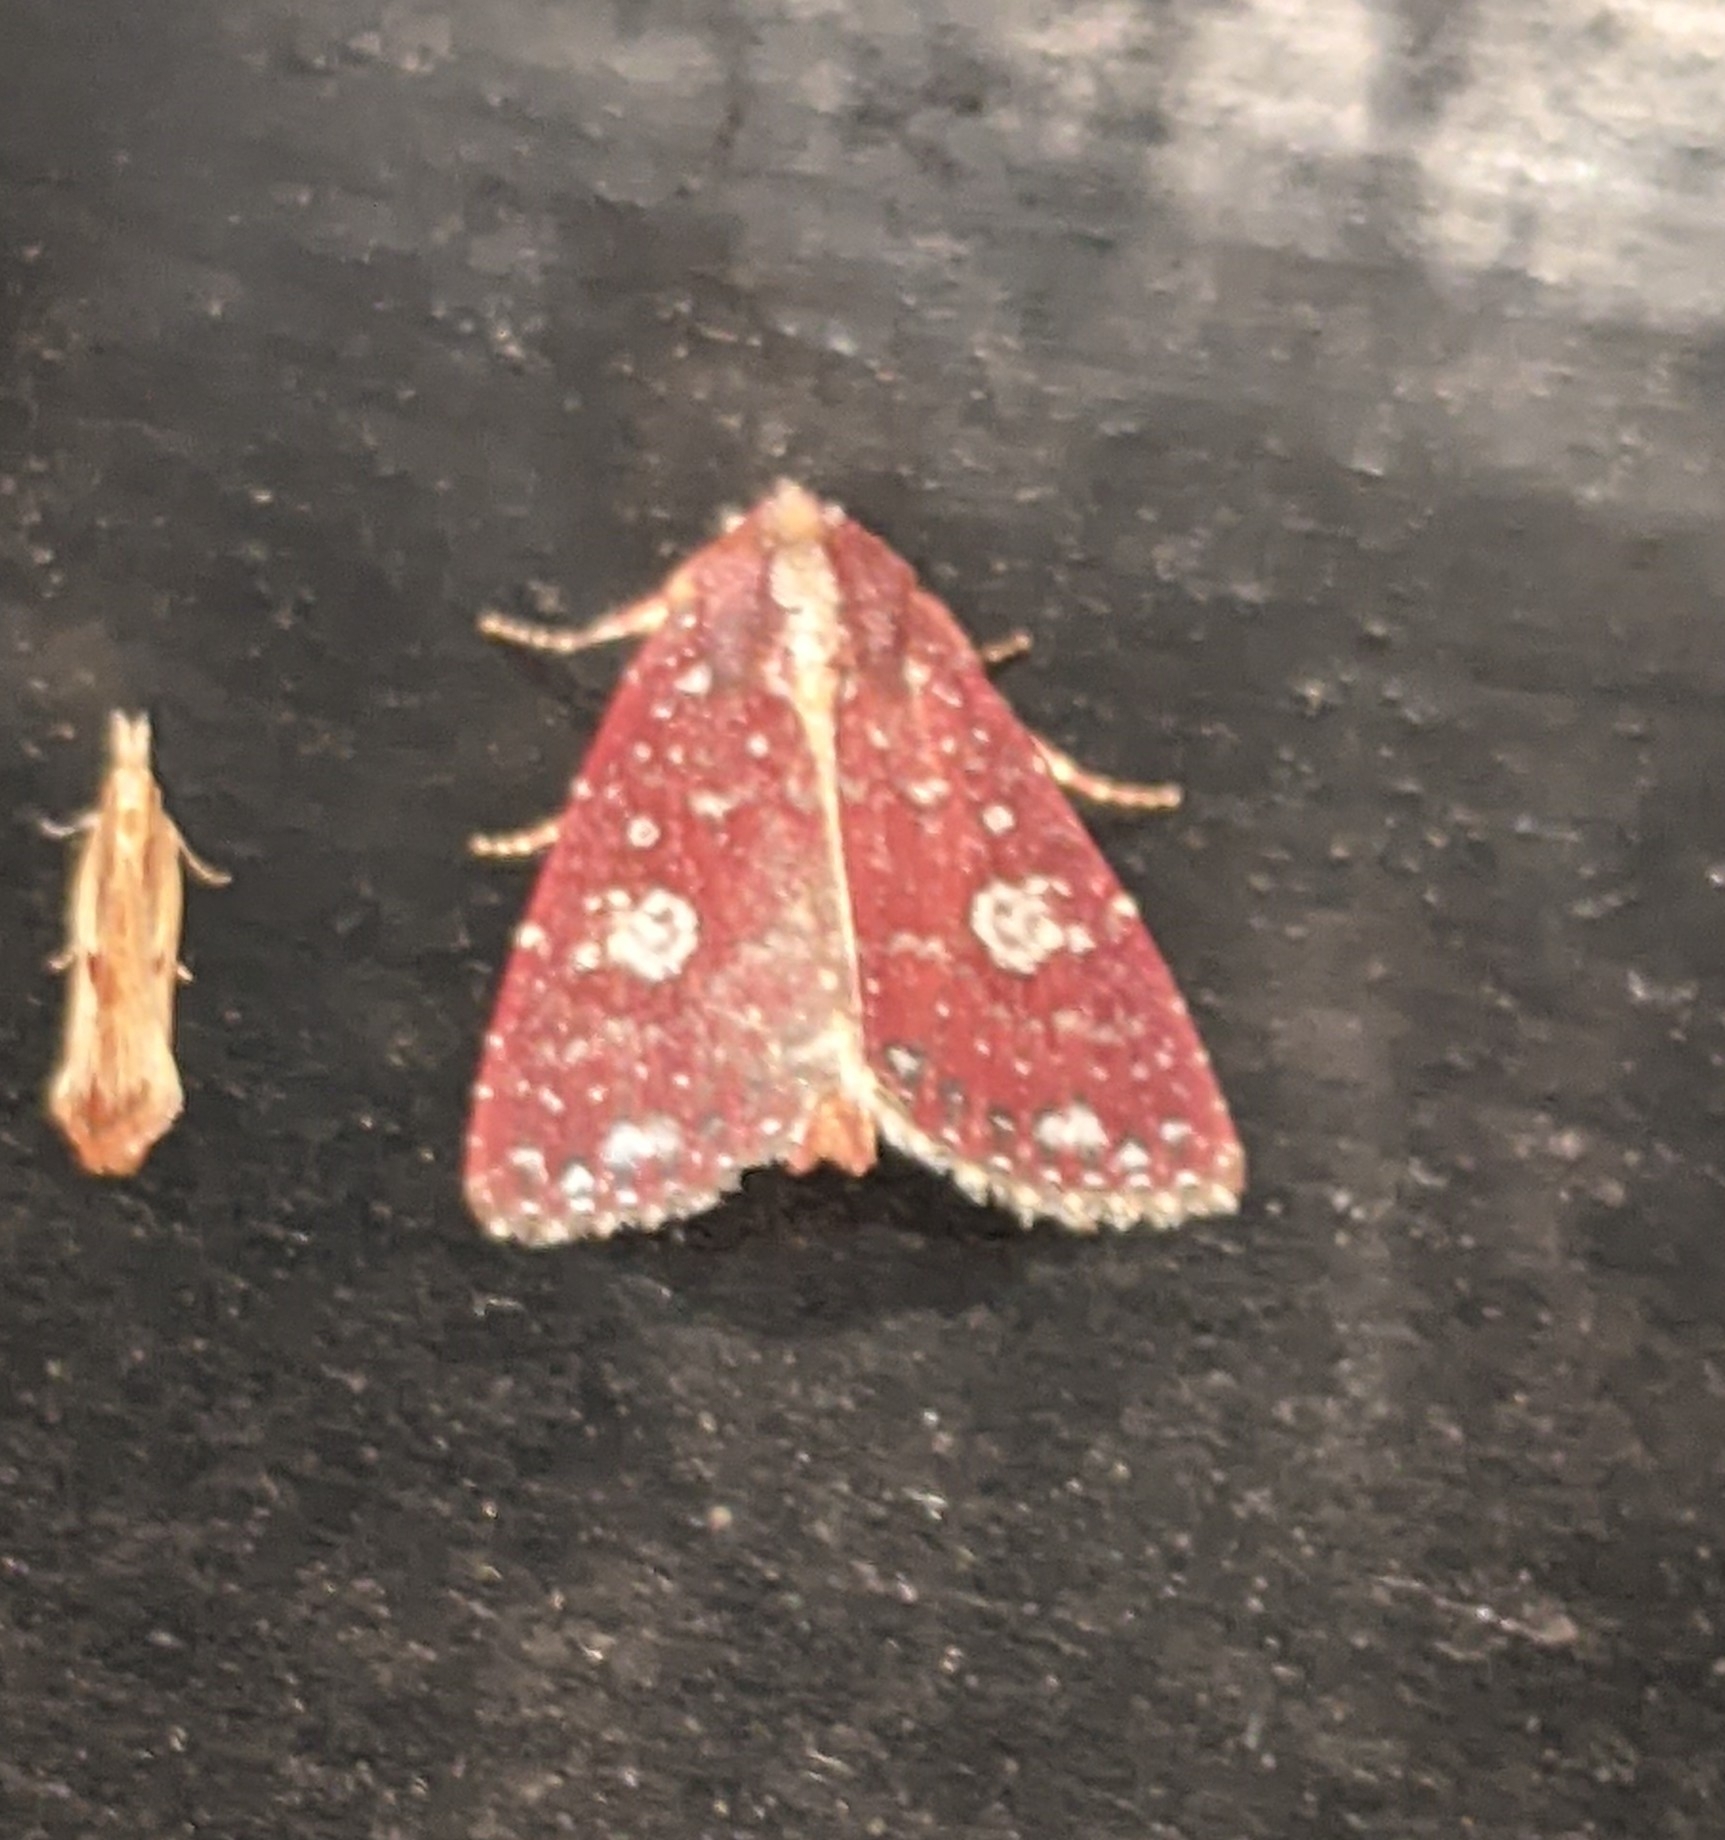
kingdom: Animalia
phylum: Arthropoda
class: Insecta
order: Lepidoptera
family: Noctuidae
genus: Condica
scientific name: Condica griseirena
